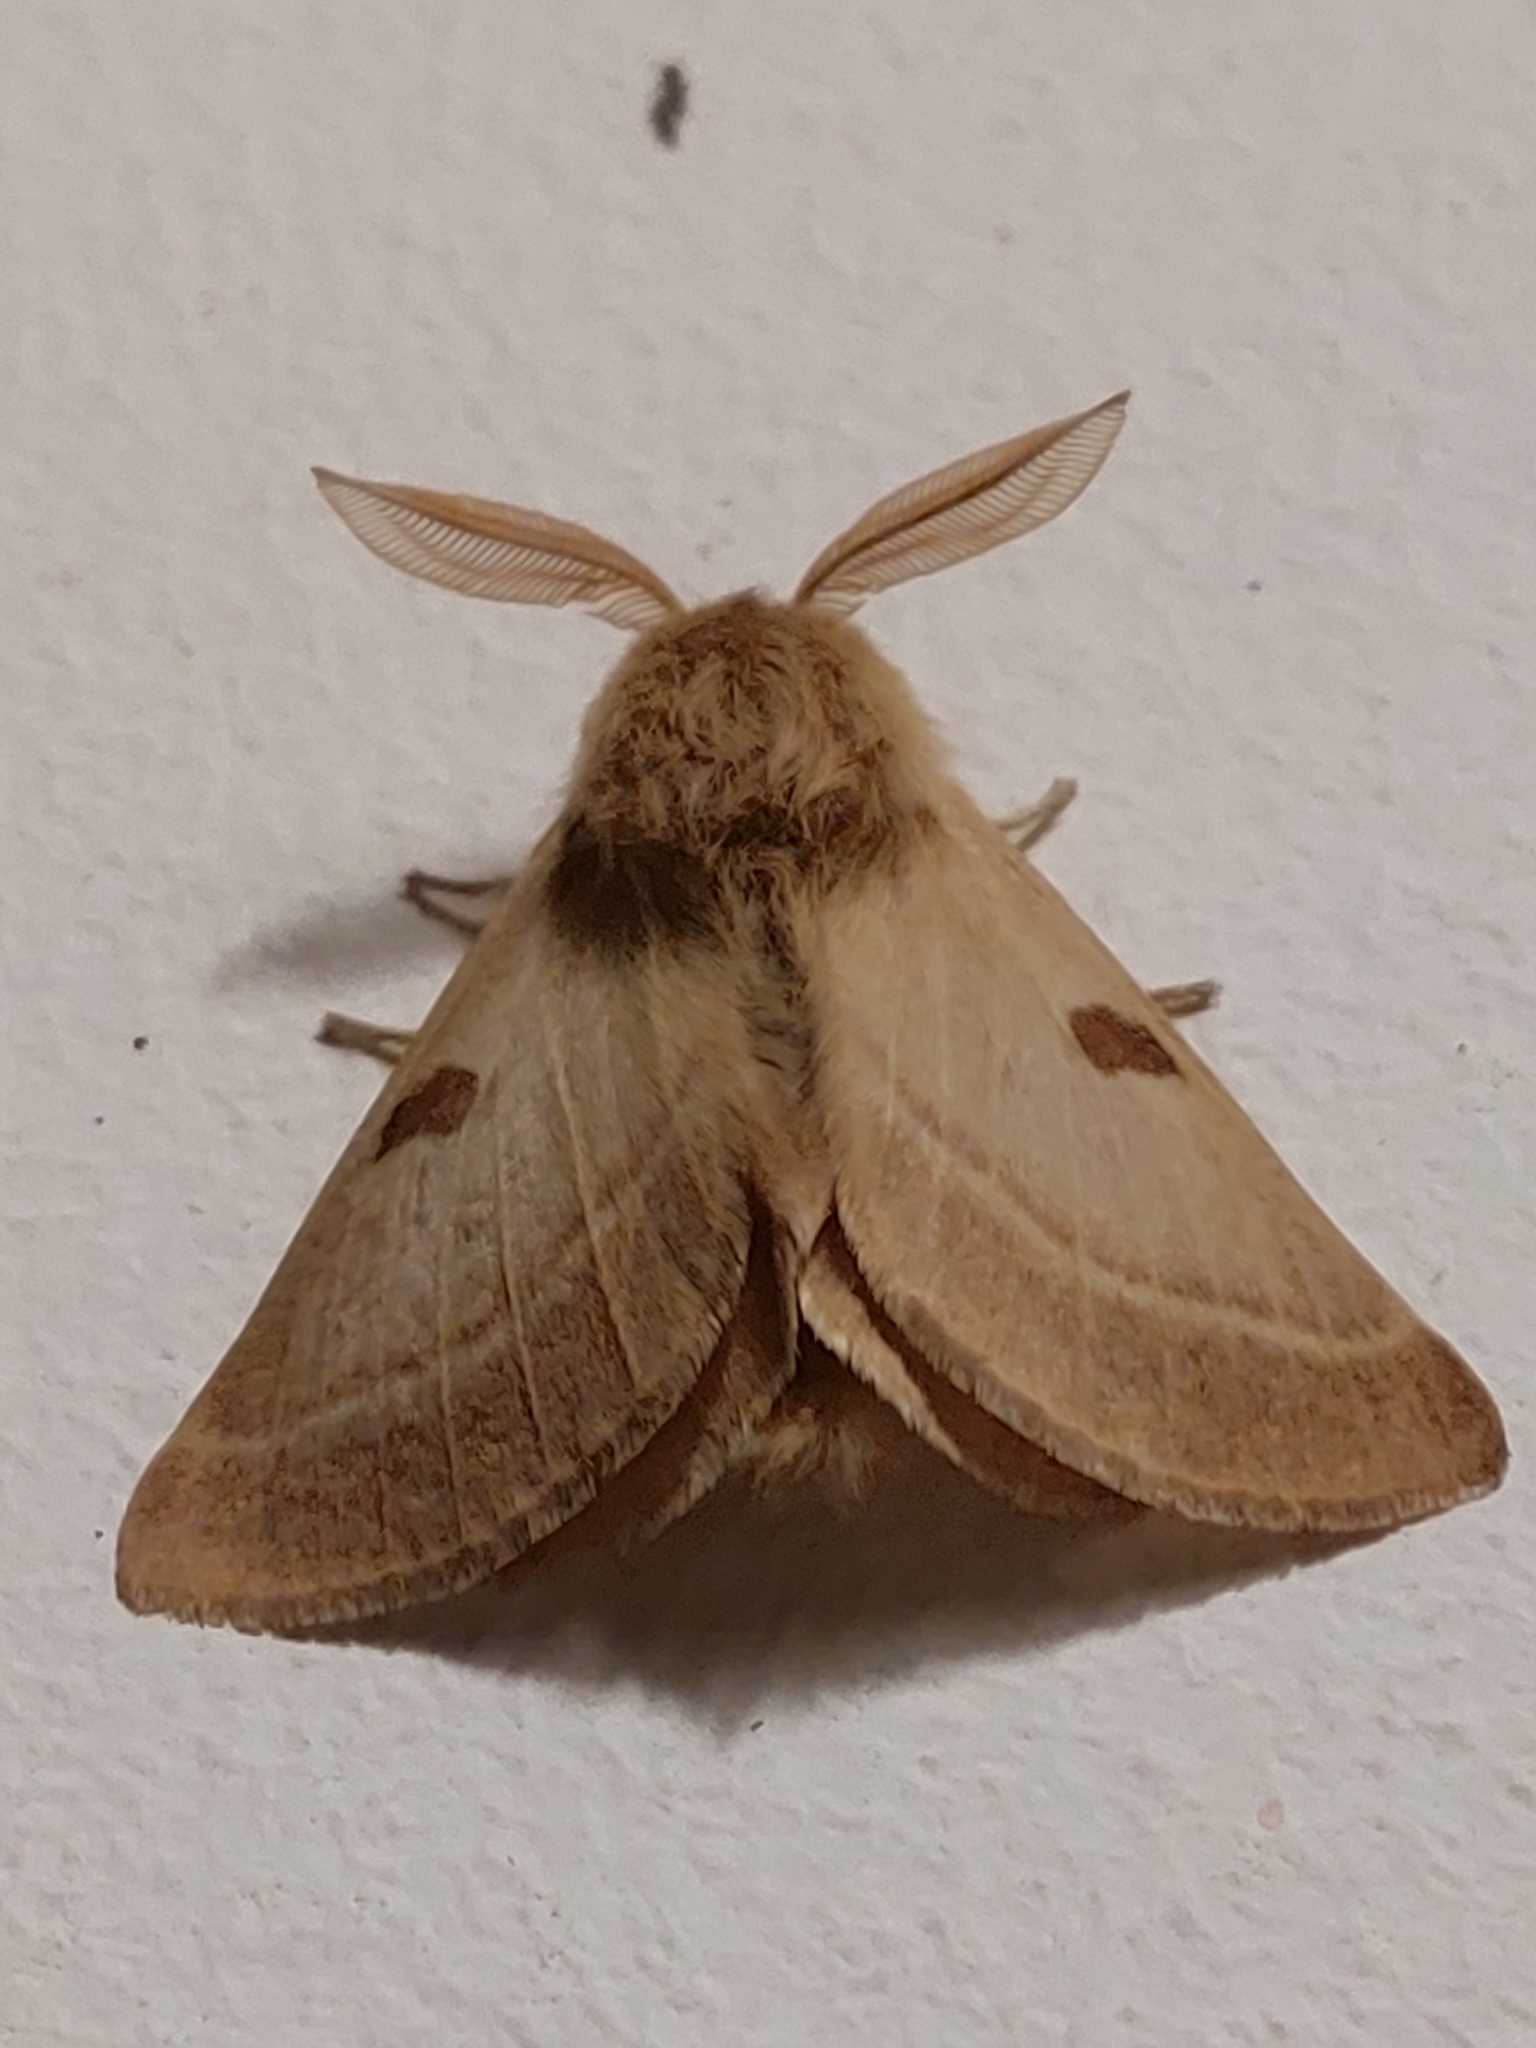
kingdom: Animalia
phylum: Arthropoda
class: Insecta
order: Lepidoptera
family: Brahmaeidae
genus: Lemonia
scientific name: Lemonia balcanica
